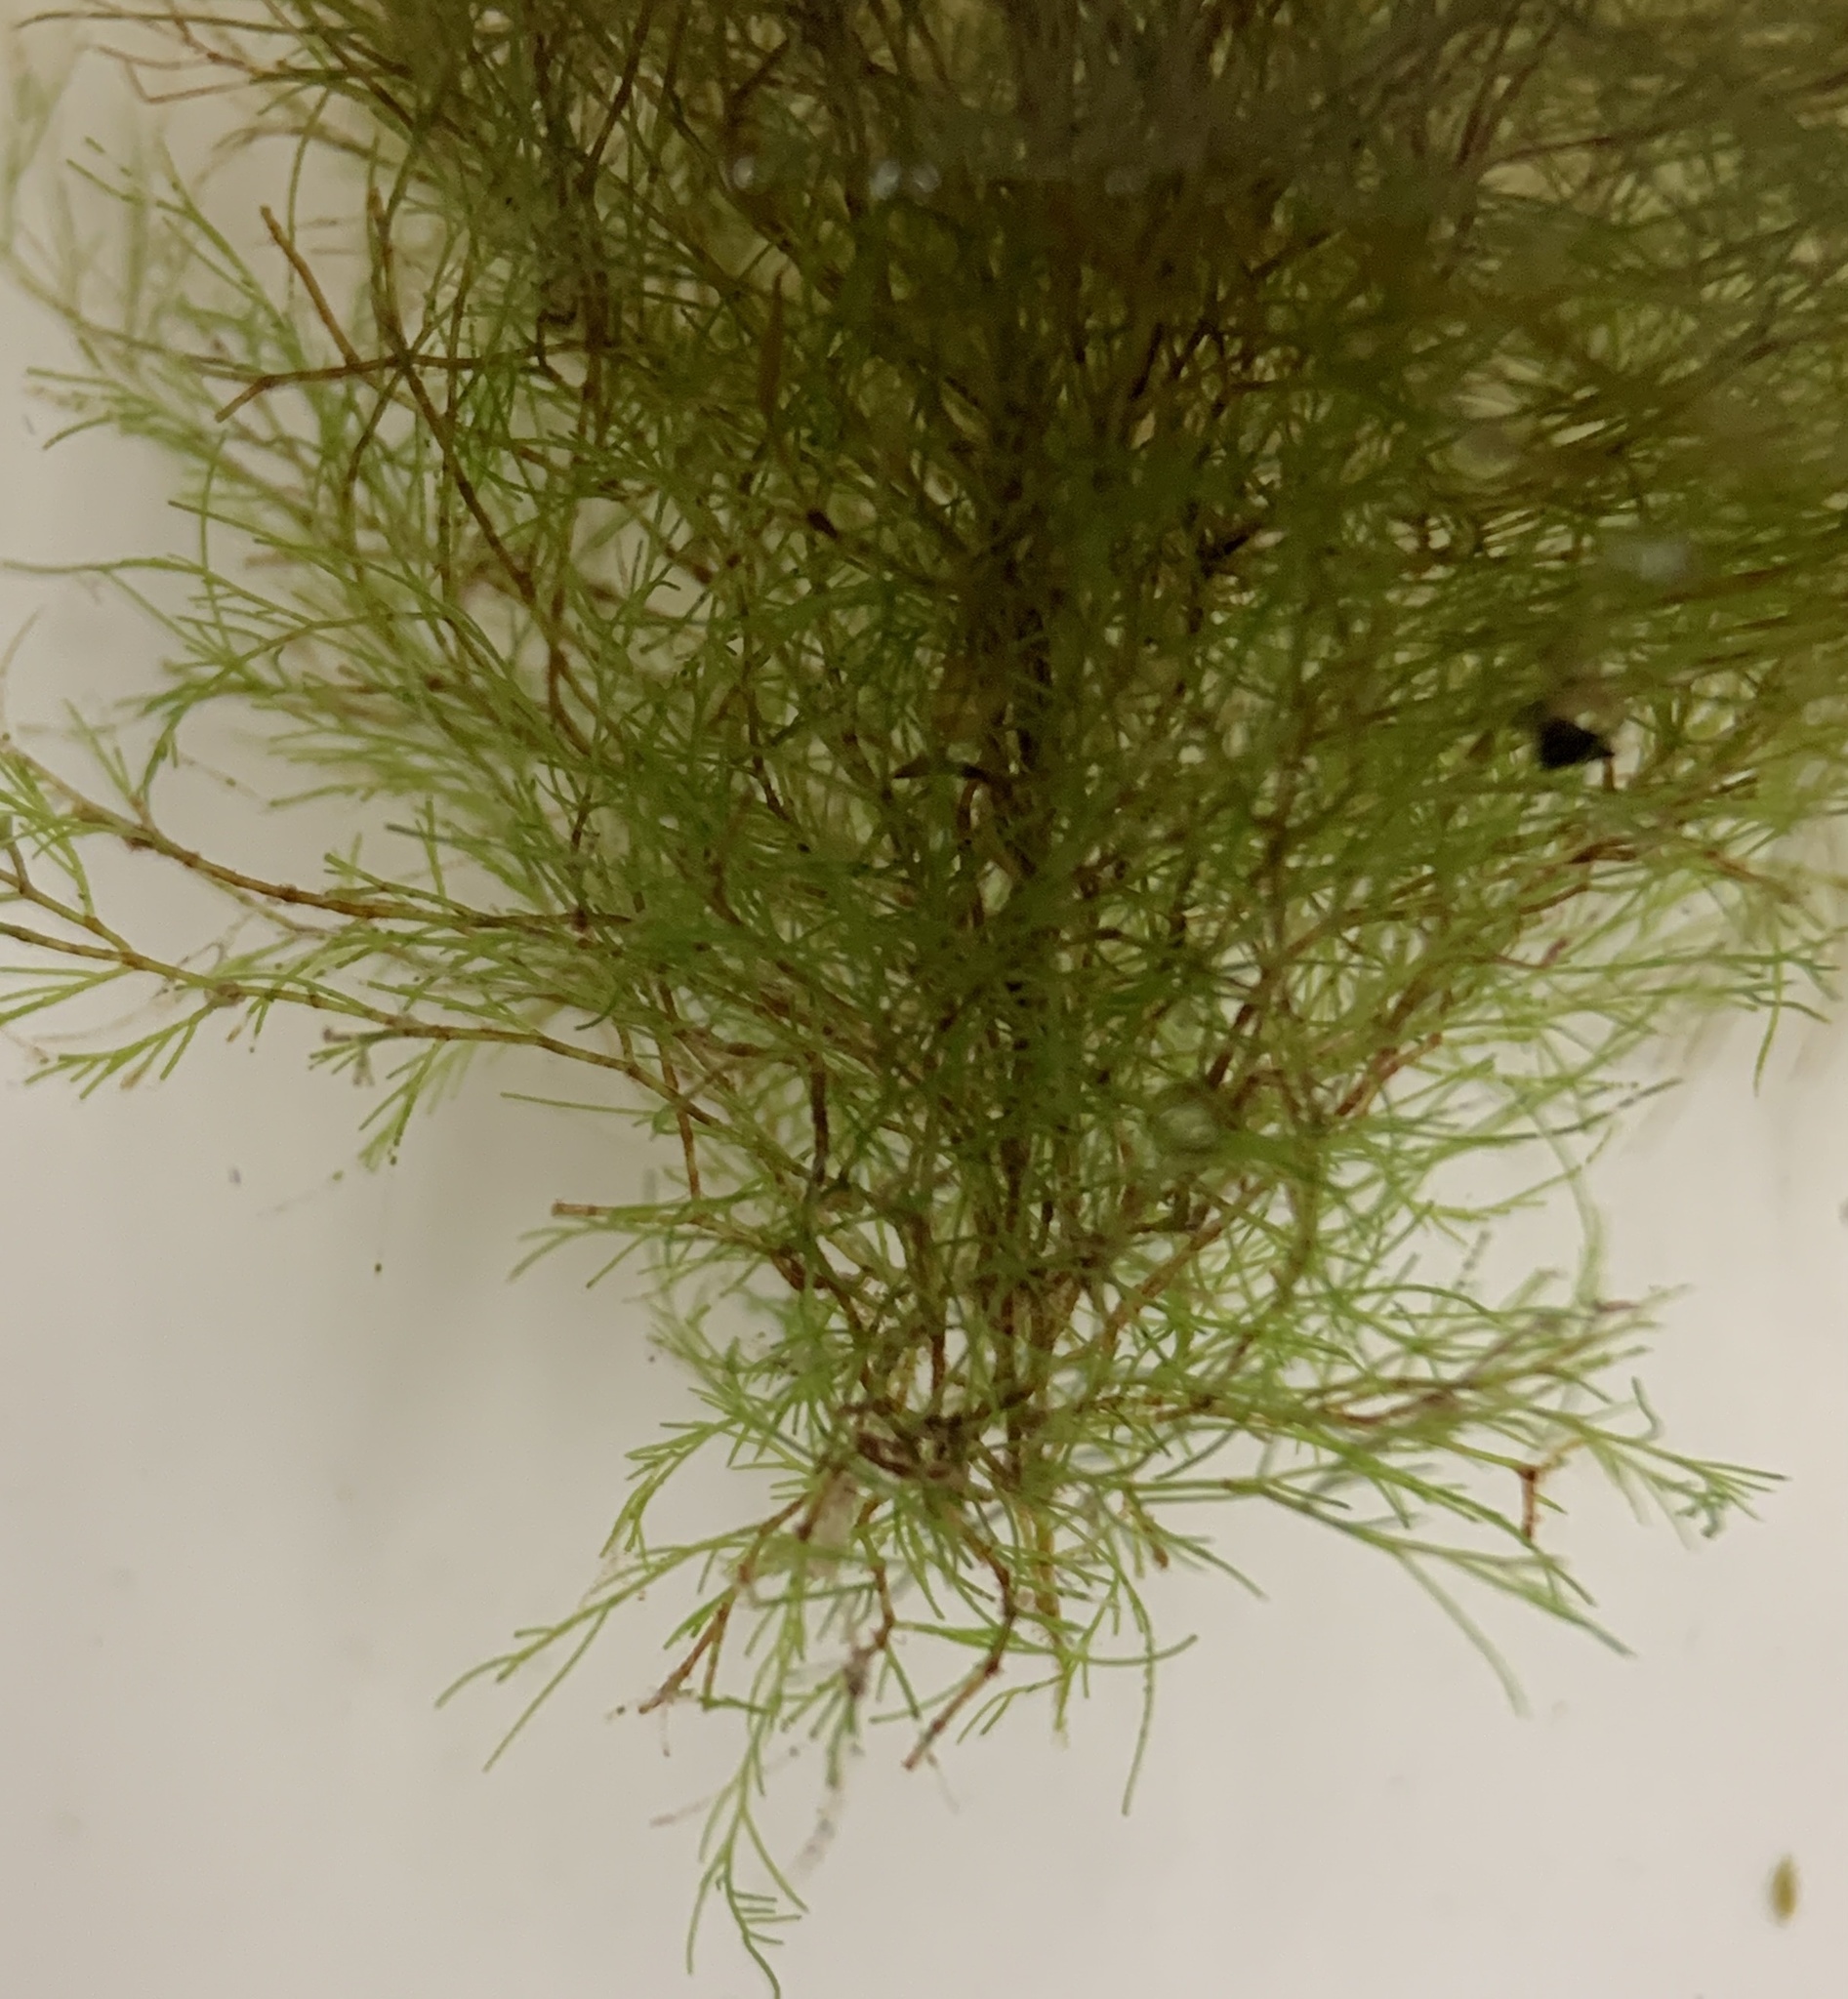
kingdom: Plantae
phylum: Chlorophyta
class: Ulvophyceae
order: Cladophorales
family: Cladophoraceae
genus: Cladophora
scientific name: Cladophora albida
